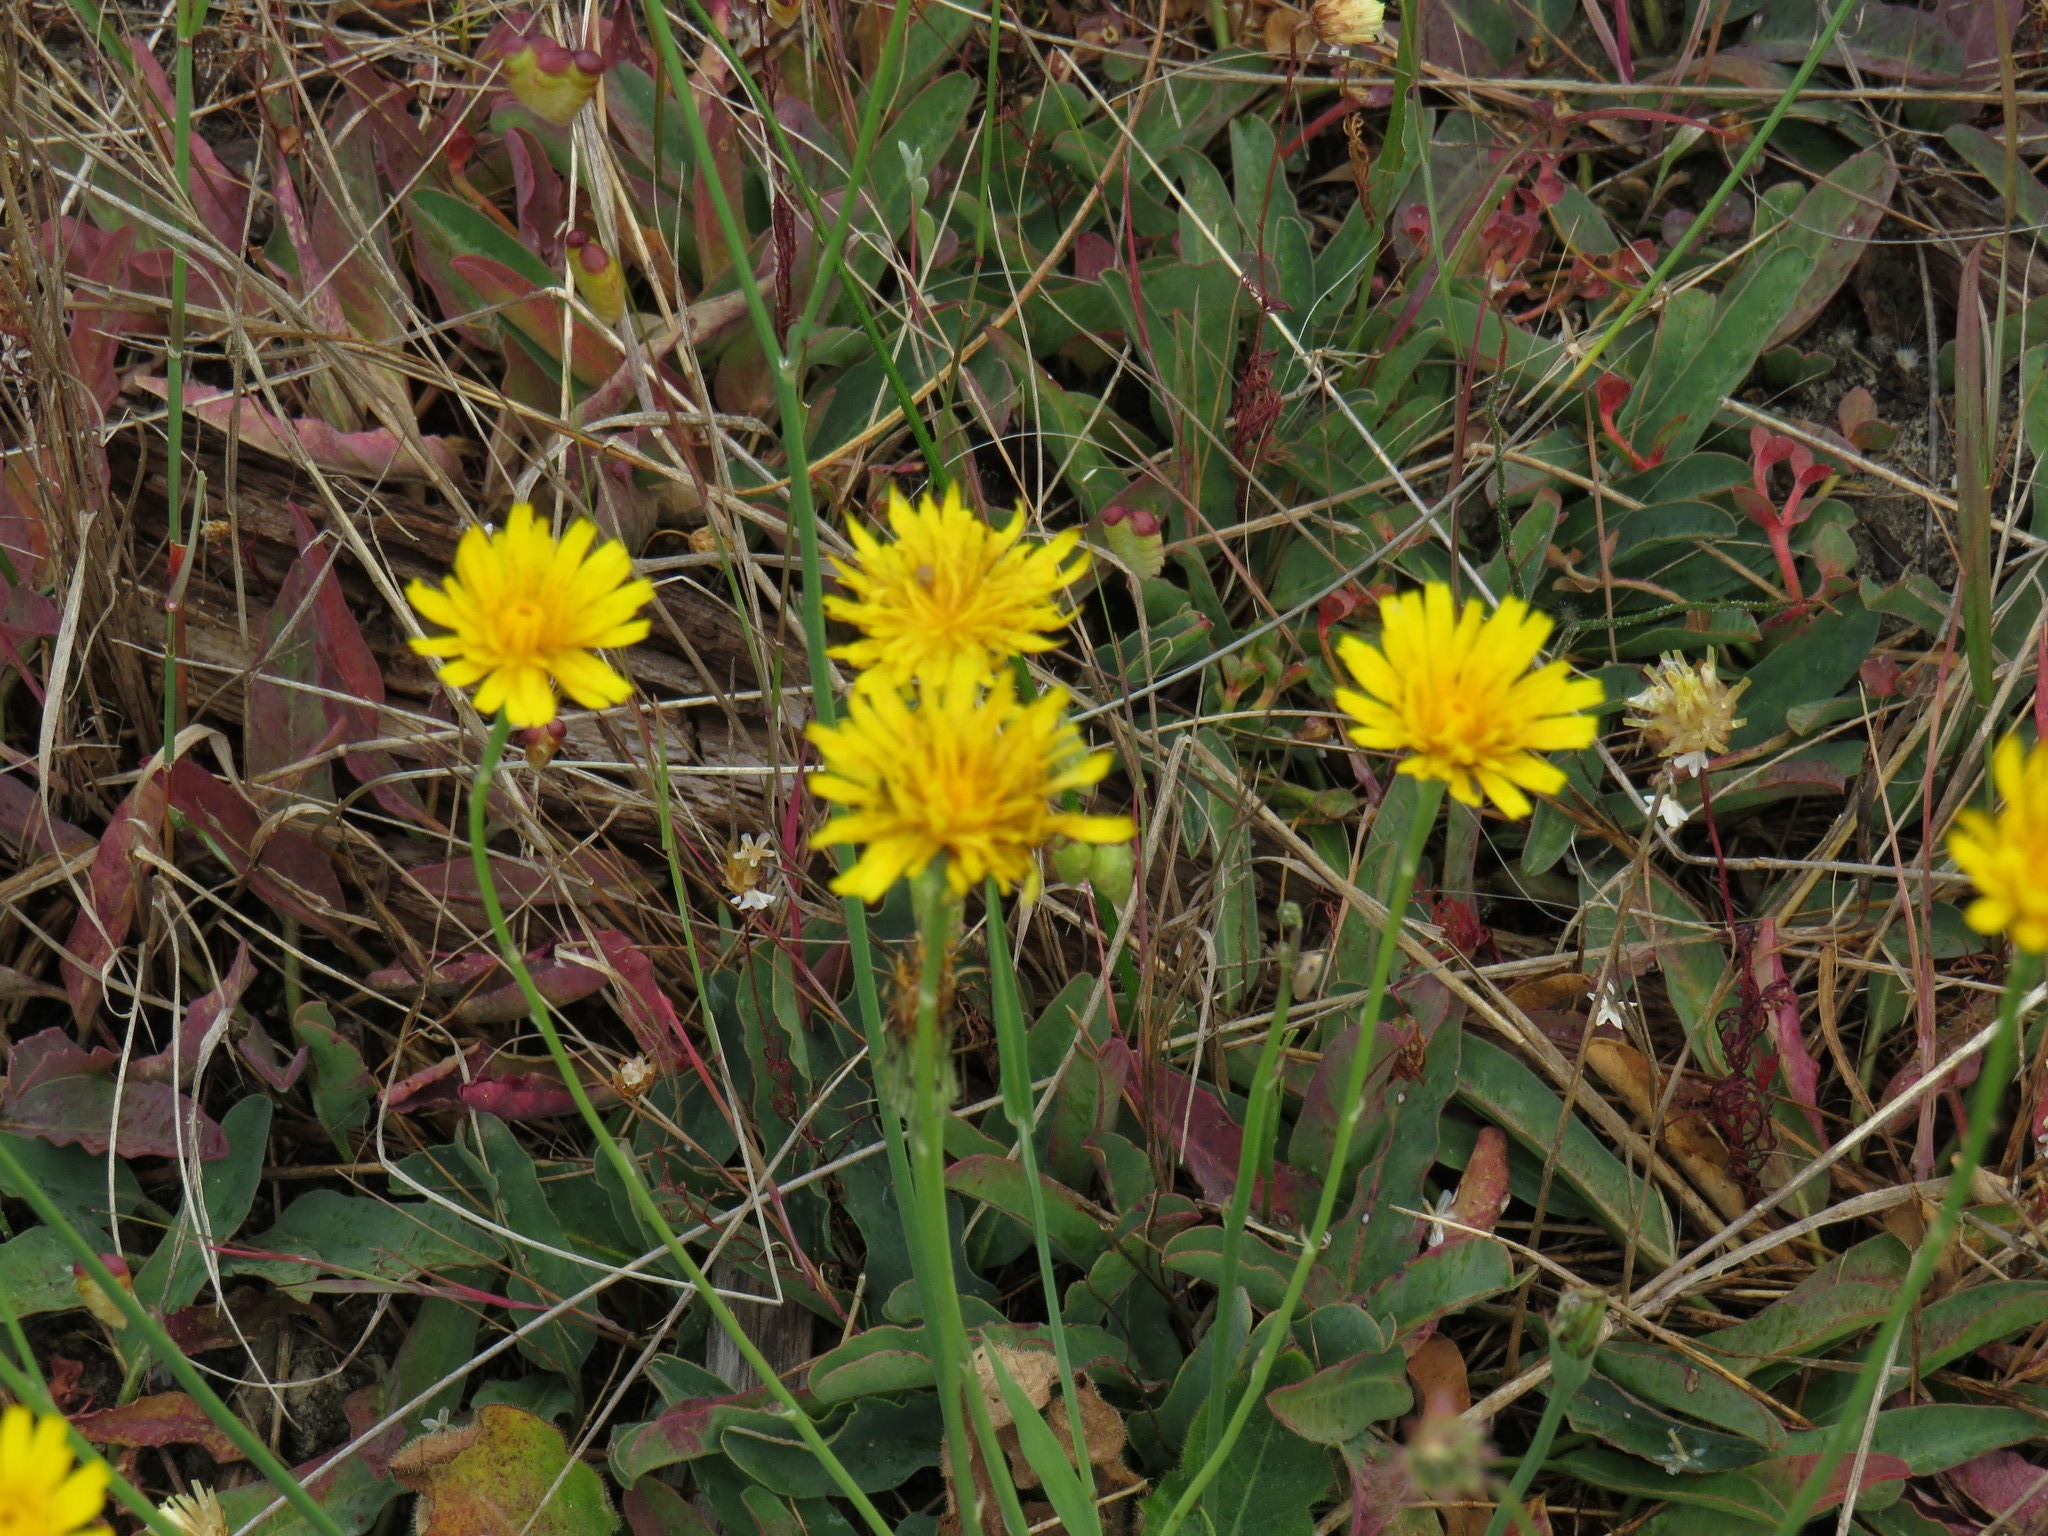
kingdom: Plantae
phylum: Tracheophyta
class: Magnoliopsida
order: Asterales
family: Asteraceae
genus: Hypochaeris
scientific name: Hypochaeris radicata
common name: Flatweed
